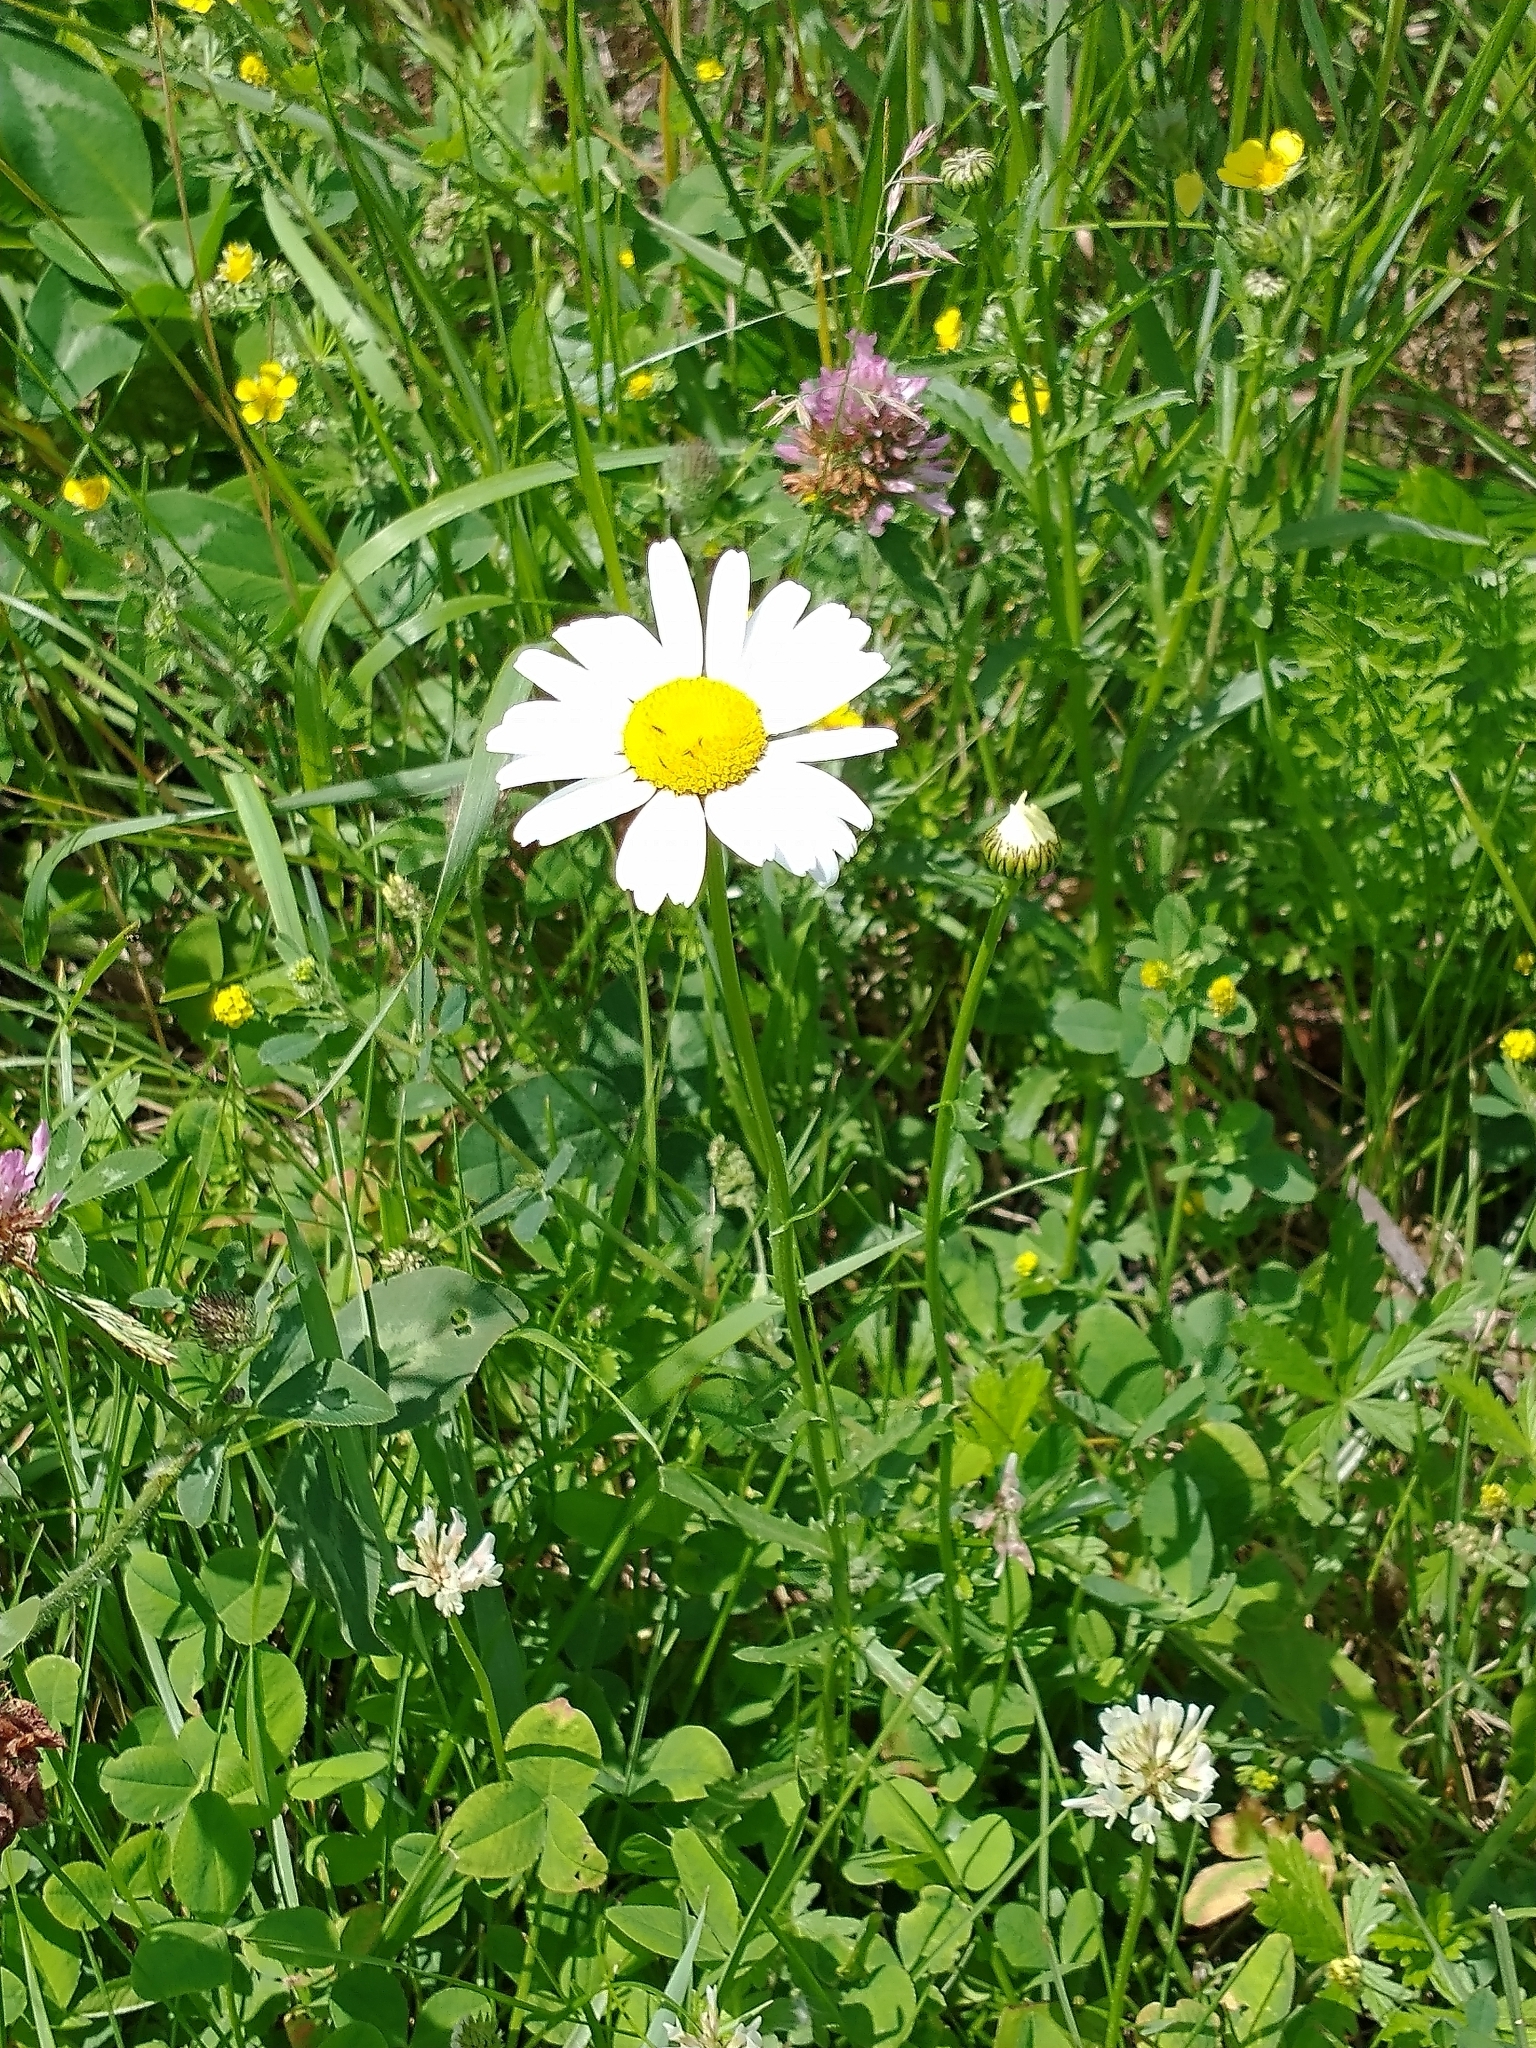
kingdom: Plantae
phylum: Tracheophyta
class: Magnoliopsida
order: Asterales
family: Asteraceae
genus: Leucanthemum
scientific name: Leucanthemum vulgare
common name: Oxeye daisy
